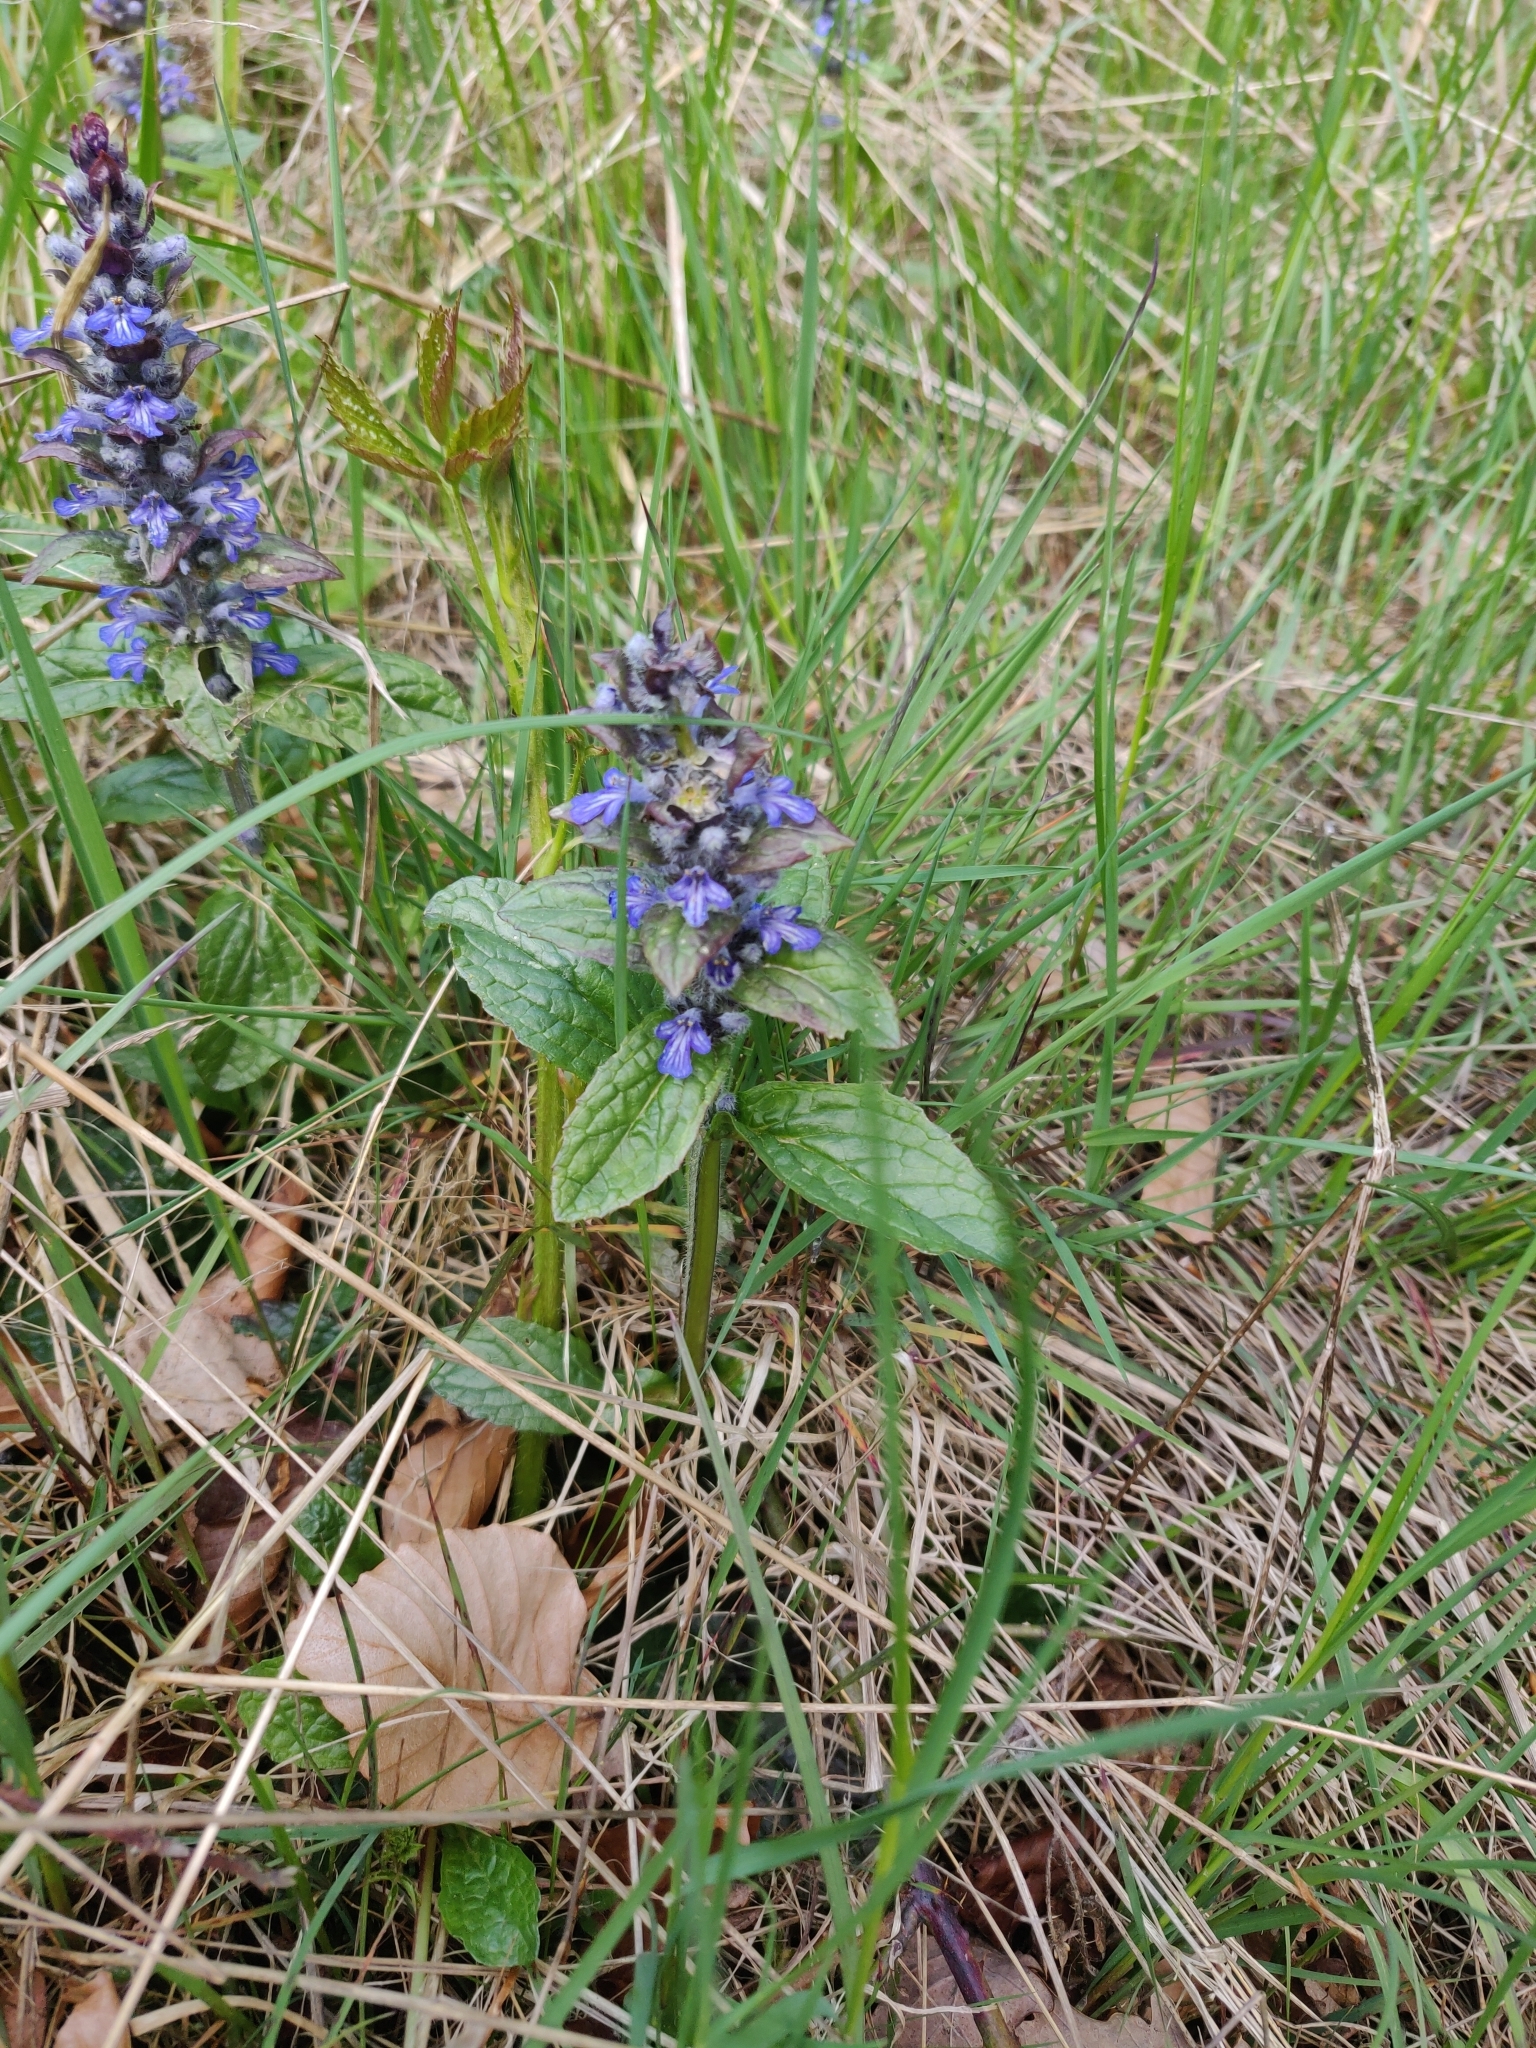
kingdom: Plantae
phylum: Tracheophyta
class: Magnoliopsida
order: Lamiales
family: Lamiaceae
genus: Ajuga
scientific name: Ajuga reptans
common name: Bugle
